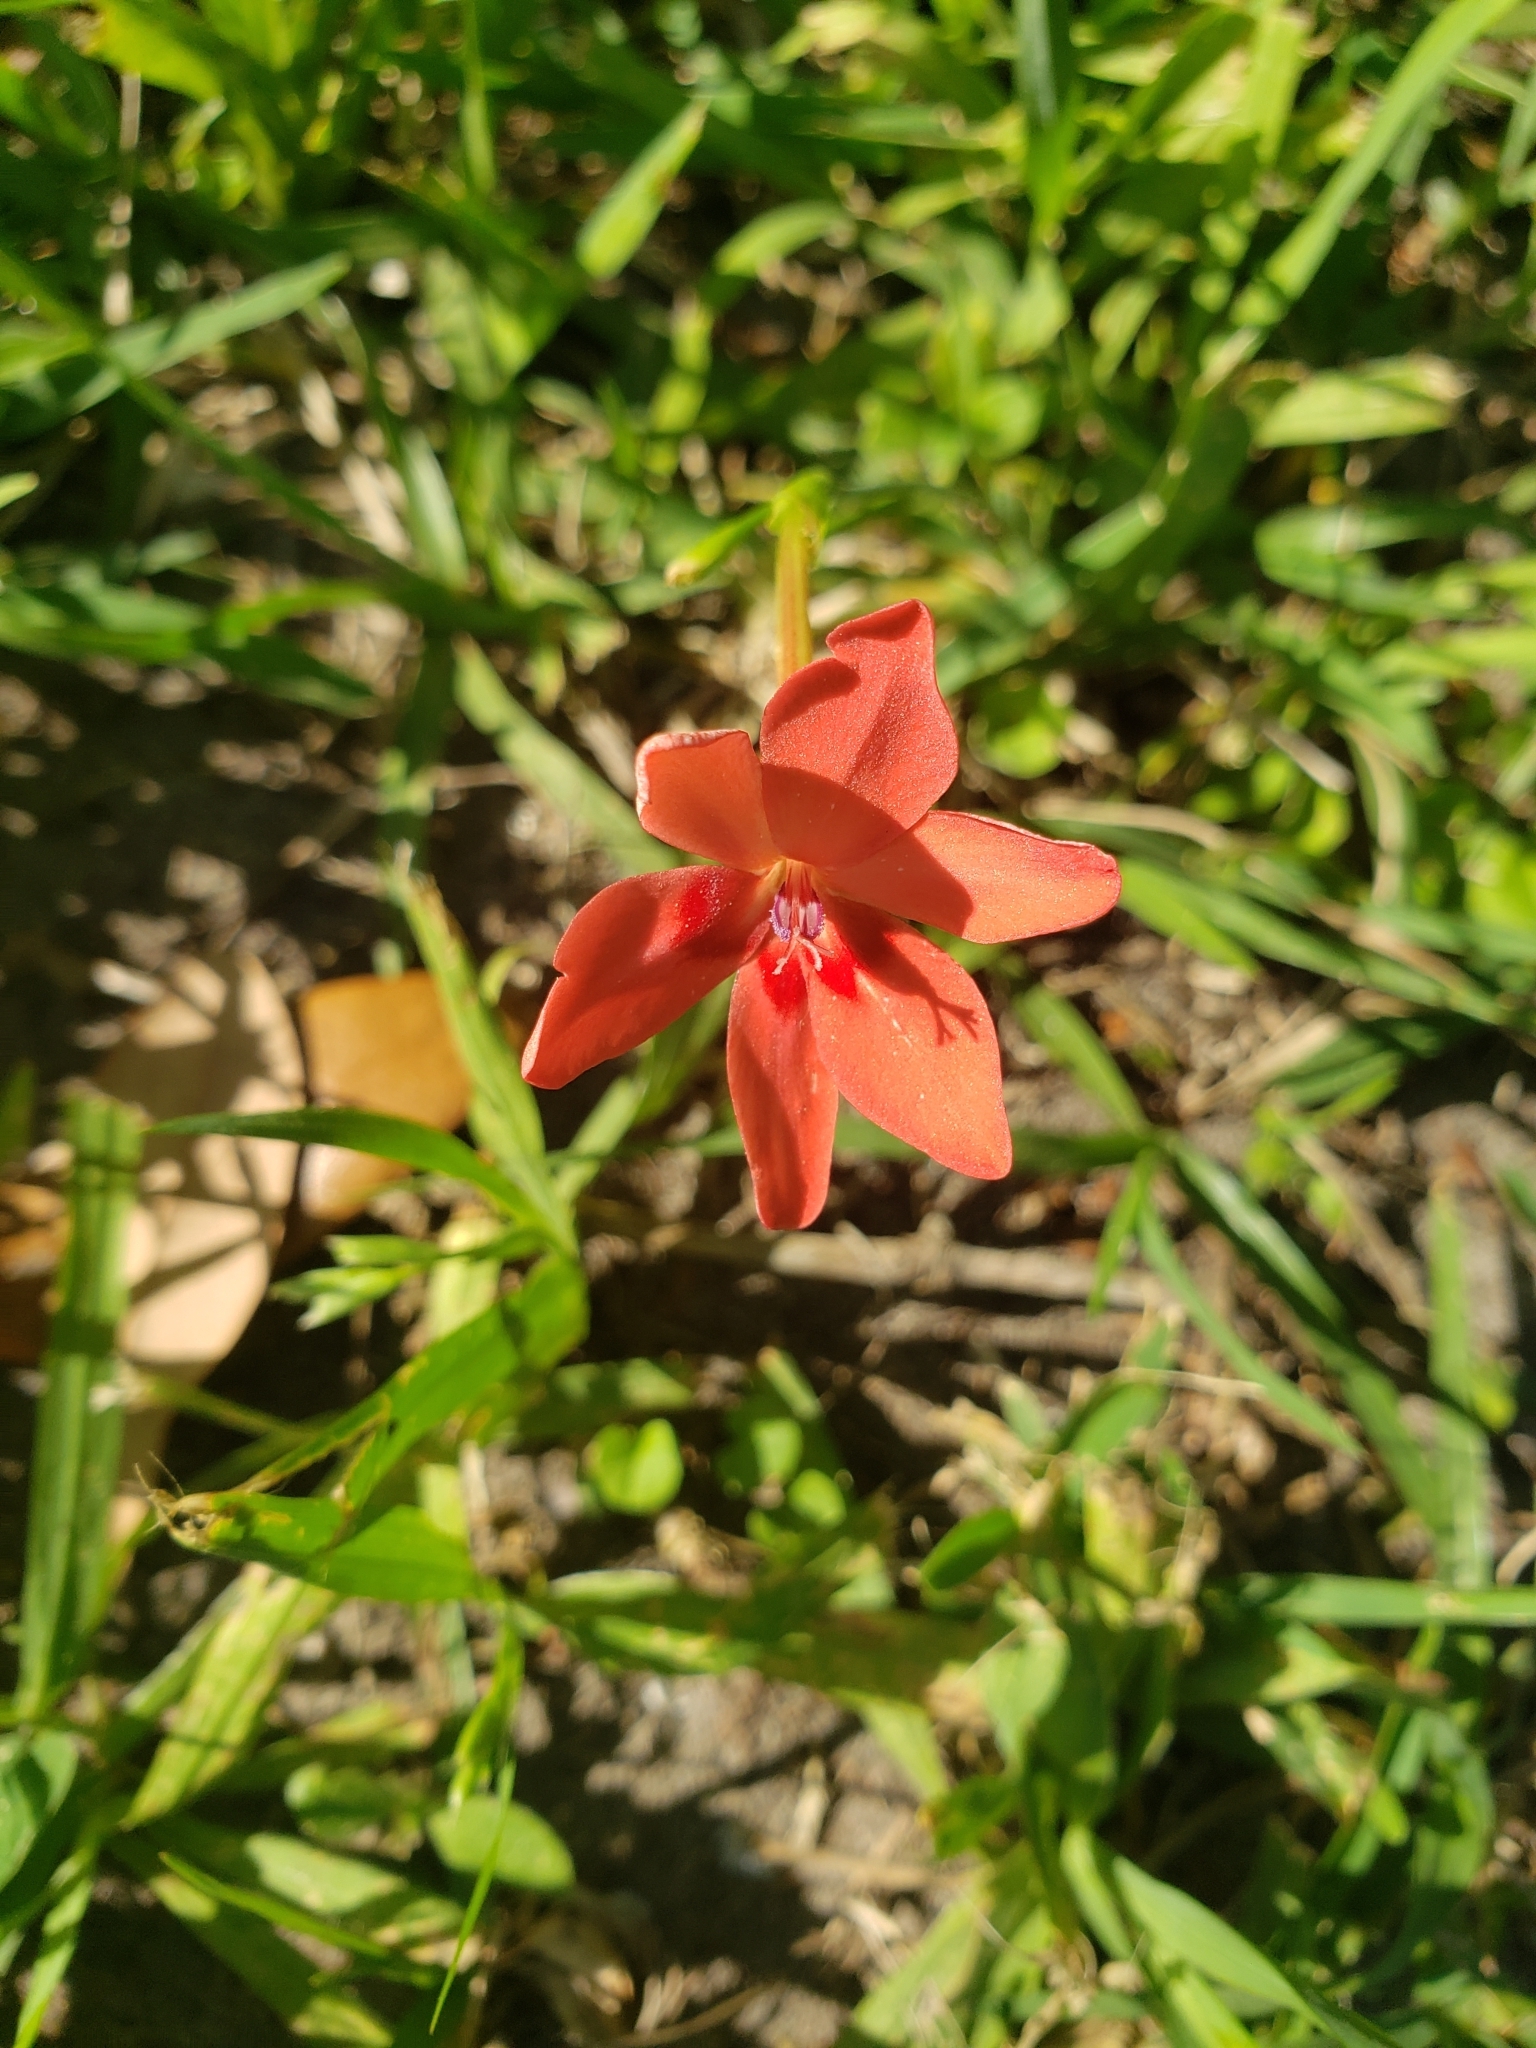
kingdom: Plantae
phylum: Tracheophyta
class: Liliopsida
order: Asparagales
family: Iridaceae
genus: Freesia
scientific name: Freesia laxa
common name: False freesia
